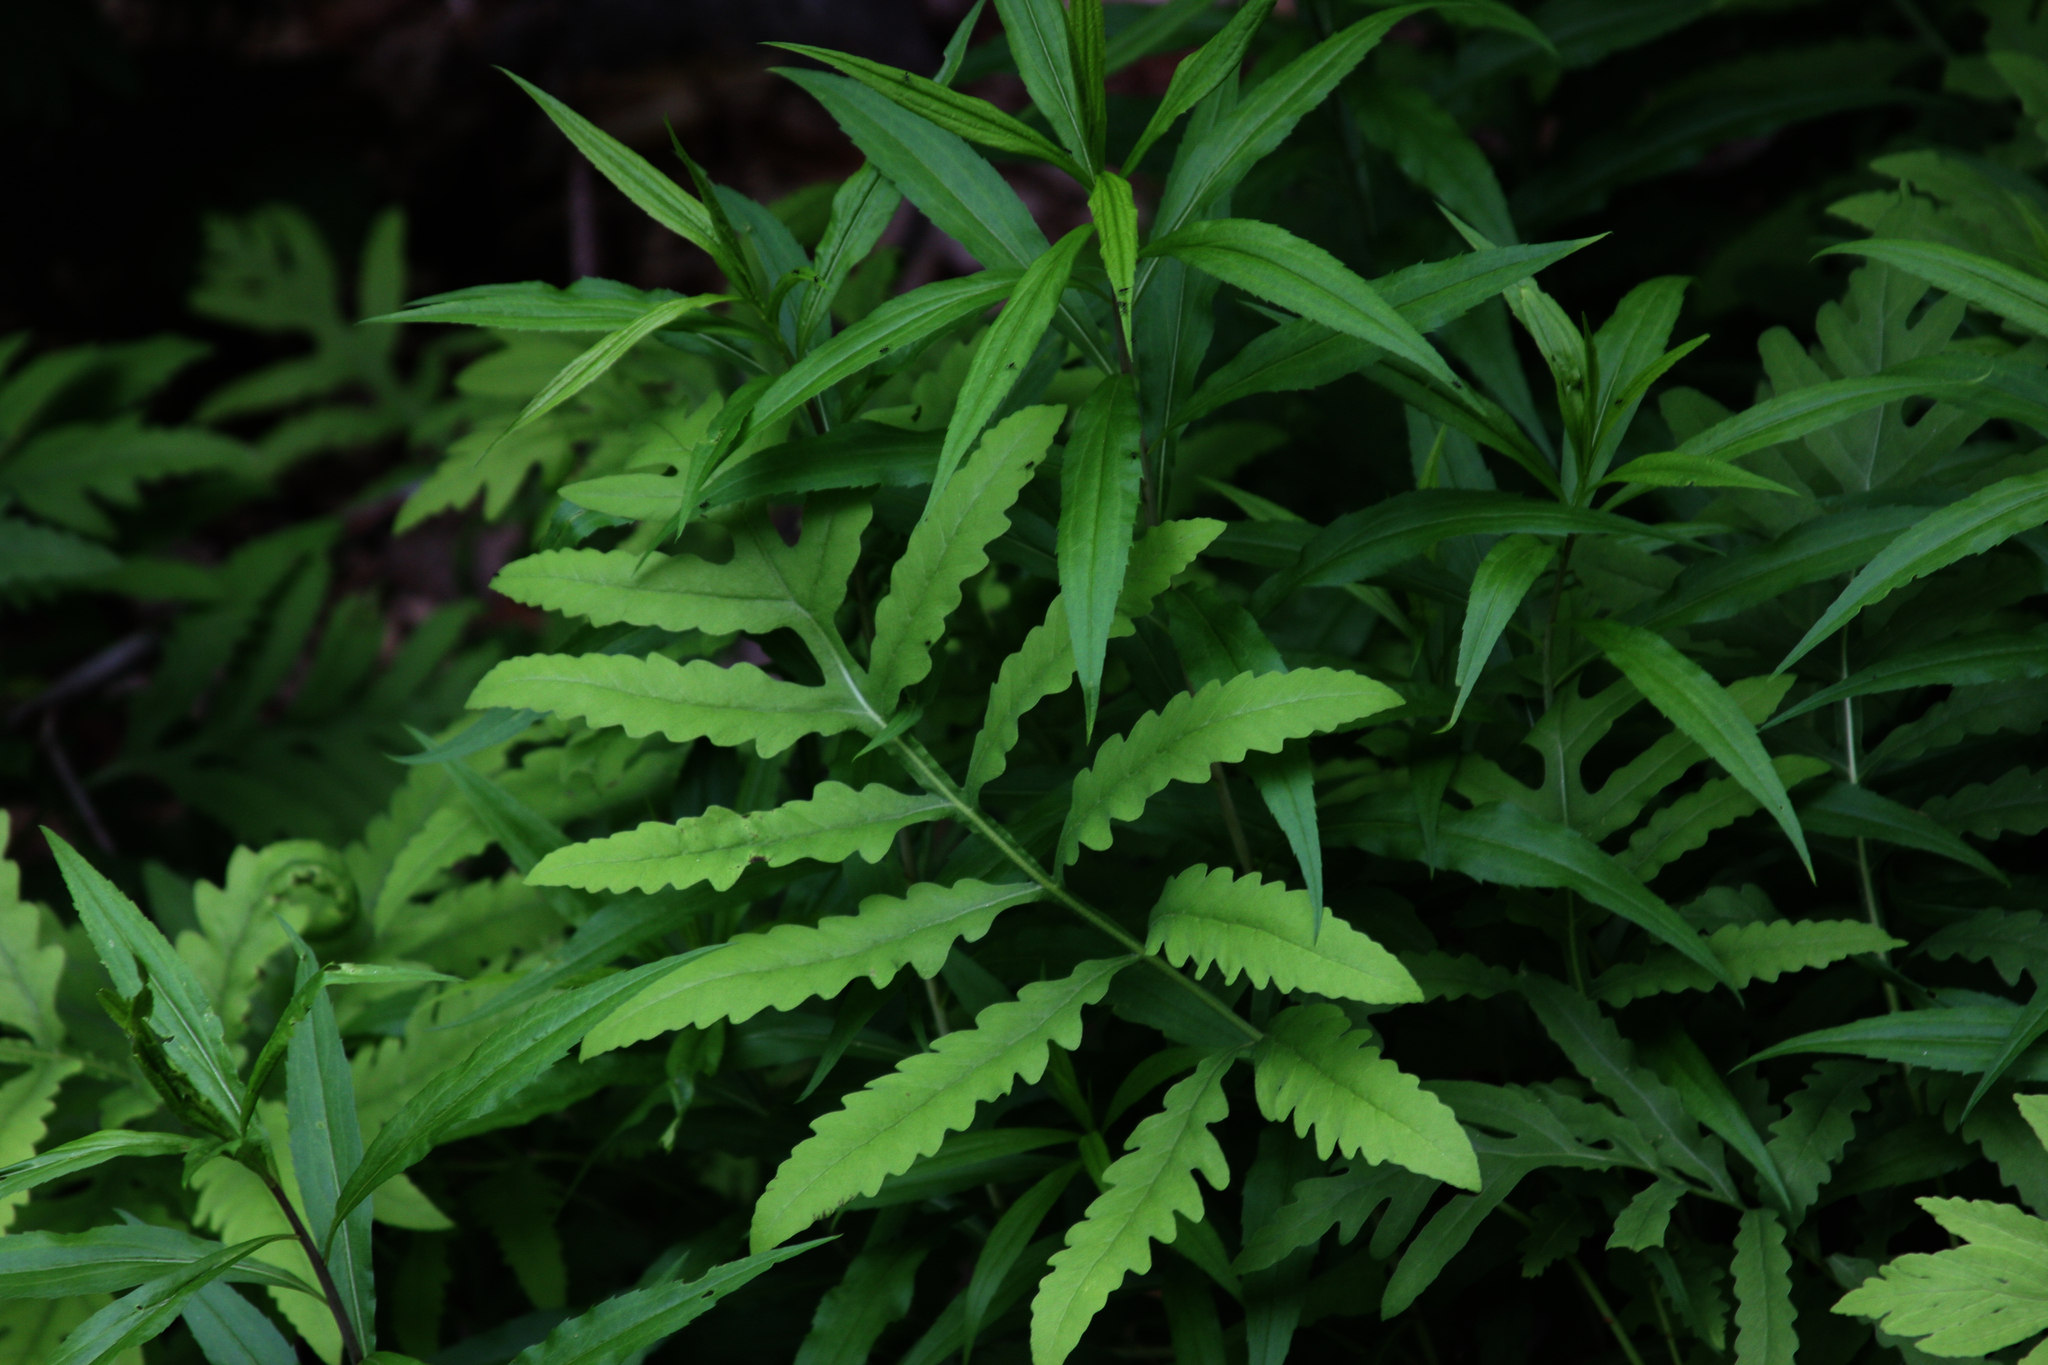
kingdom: Plantae
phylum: Tracheophyta
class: Polypodiopsida
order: Polypodiales
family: Onocleaceae
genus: Onoclea
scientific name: Onoclea sensibilis
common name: Sensitive fern
